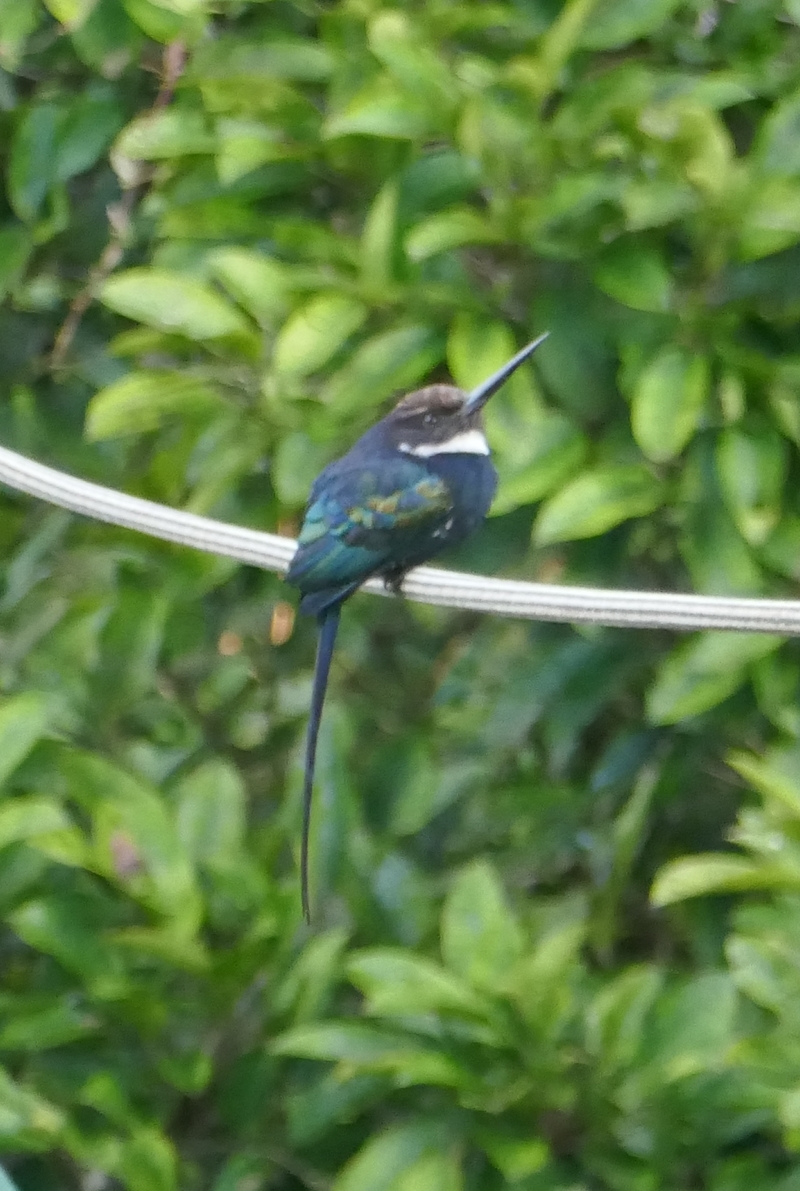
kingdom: Animalia
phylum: Chordata
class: Aves
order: Piciformes
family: Galbulidae
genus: Galbula
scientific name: Galbula dea
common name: Paradise jacamar
